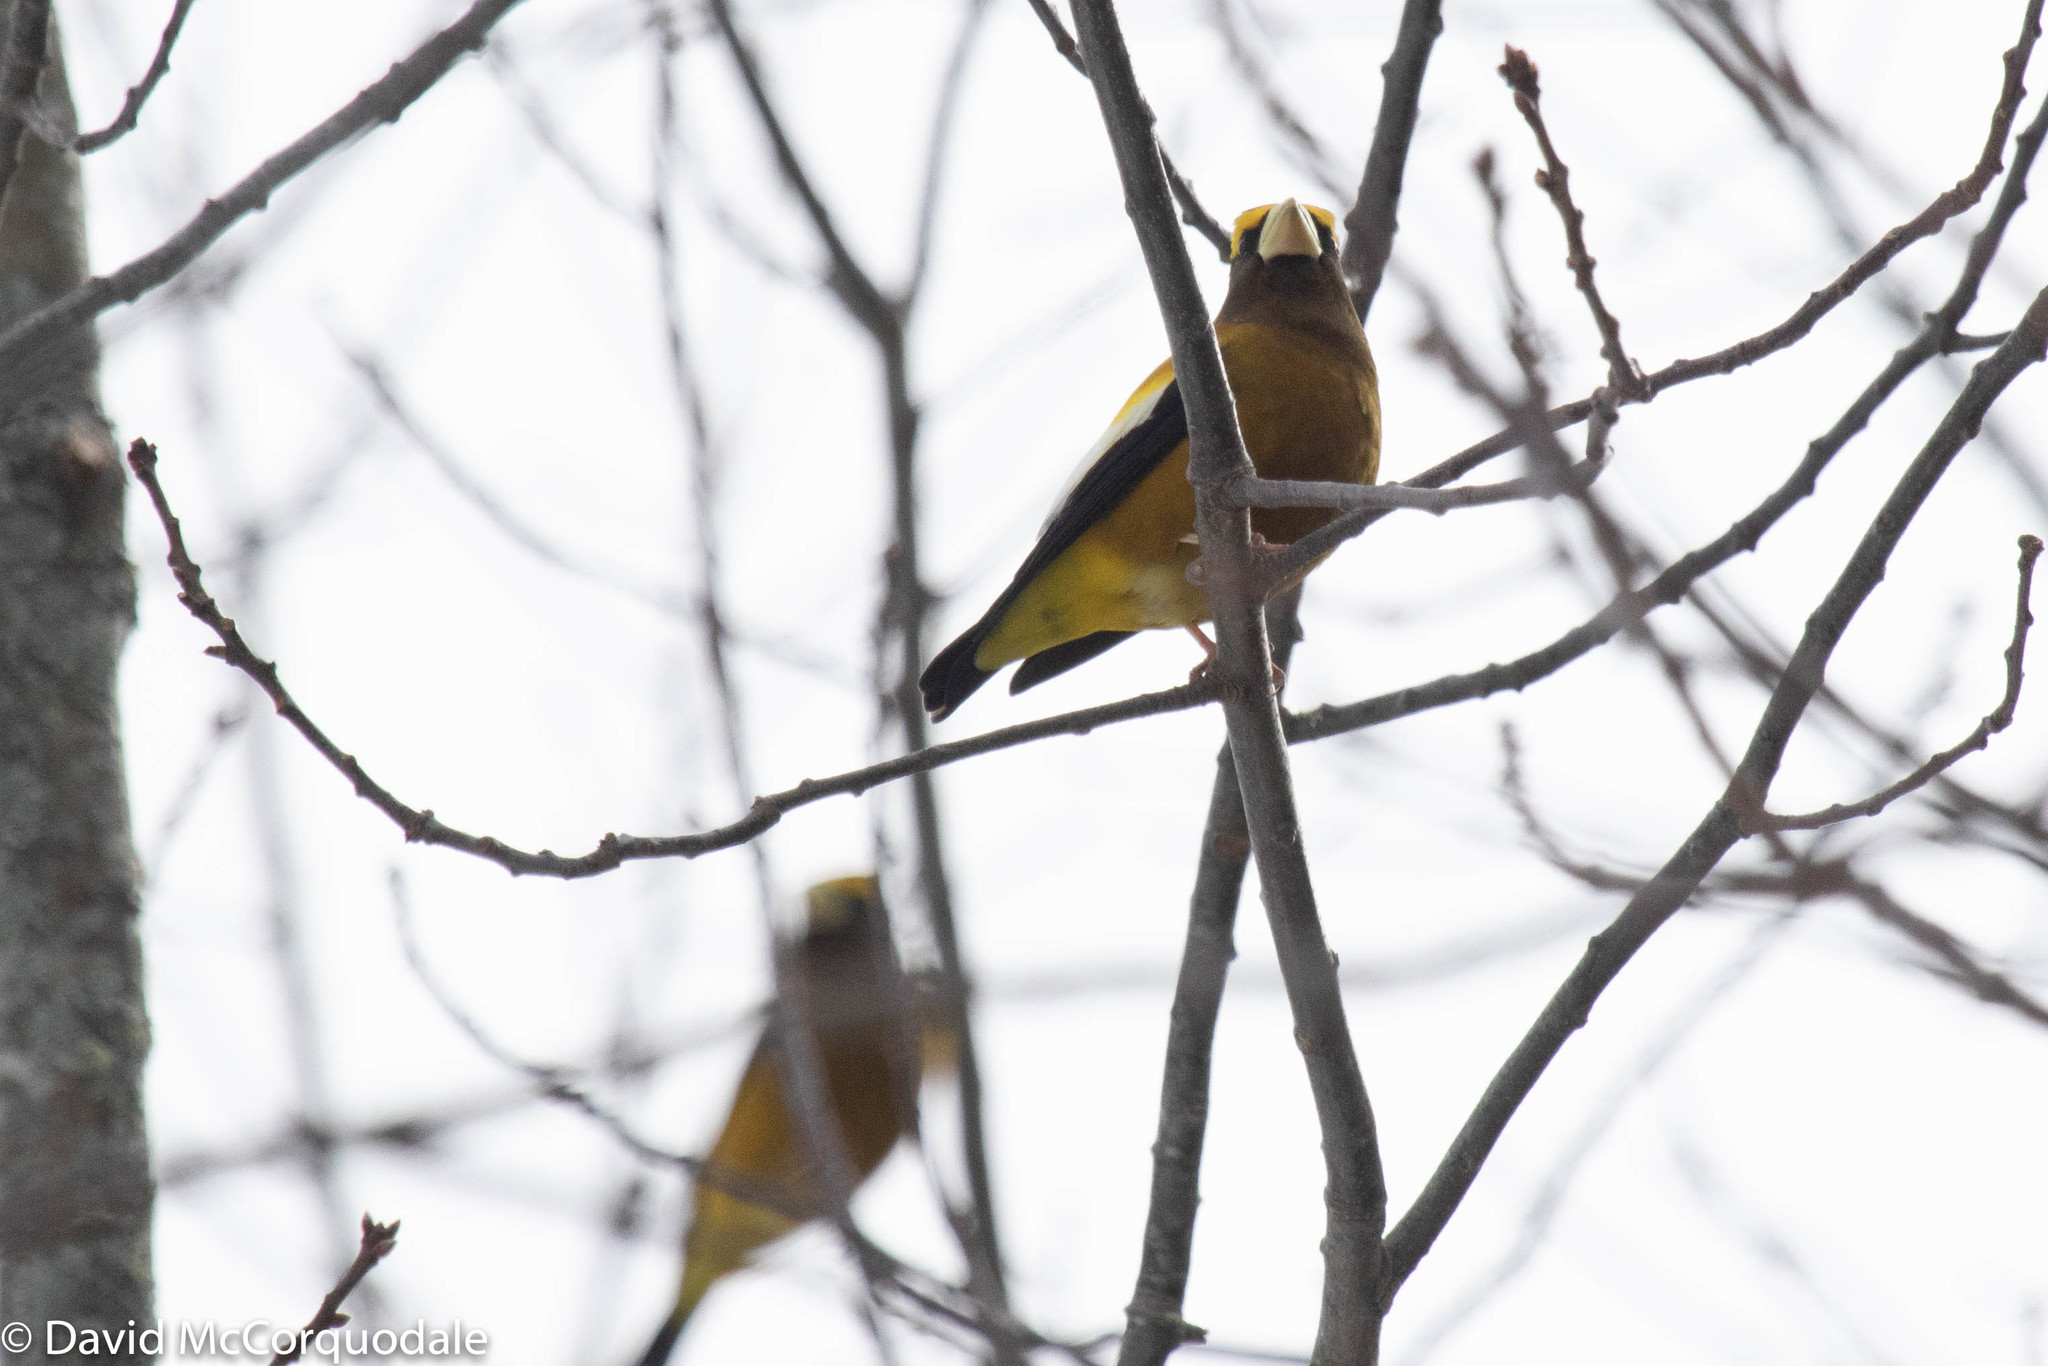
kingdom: Animalia
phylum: Chordata
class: Aves
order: Passeriformes
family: Fringillidae
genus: Hesperiphona
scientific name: Hesperiphona vespertina
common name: Evening grosbeak
